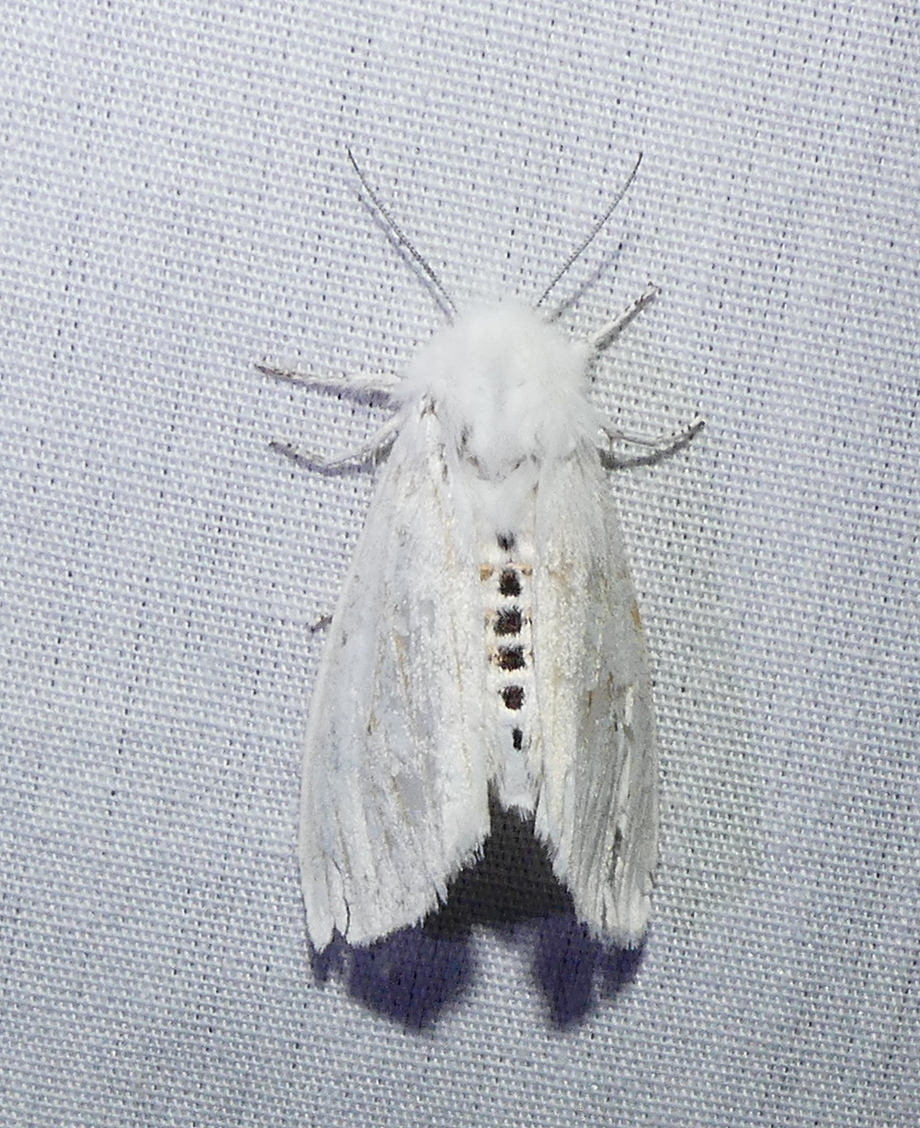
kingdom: Animalia
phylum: Arthropoda
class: Insecta
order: Lepidoptera
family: Erebidae
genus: Spilosoma
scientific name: Spilosoma virginica
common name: Virginia tiger moth
